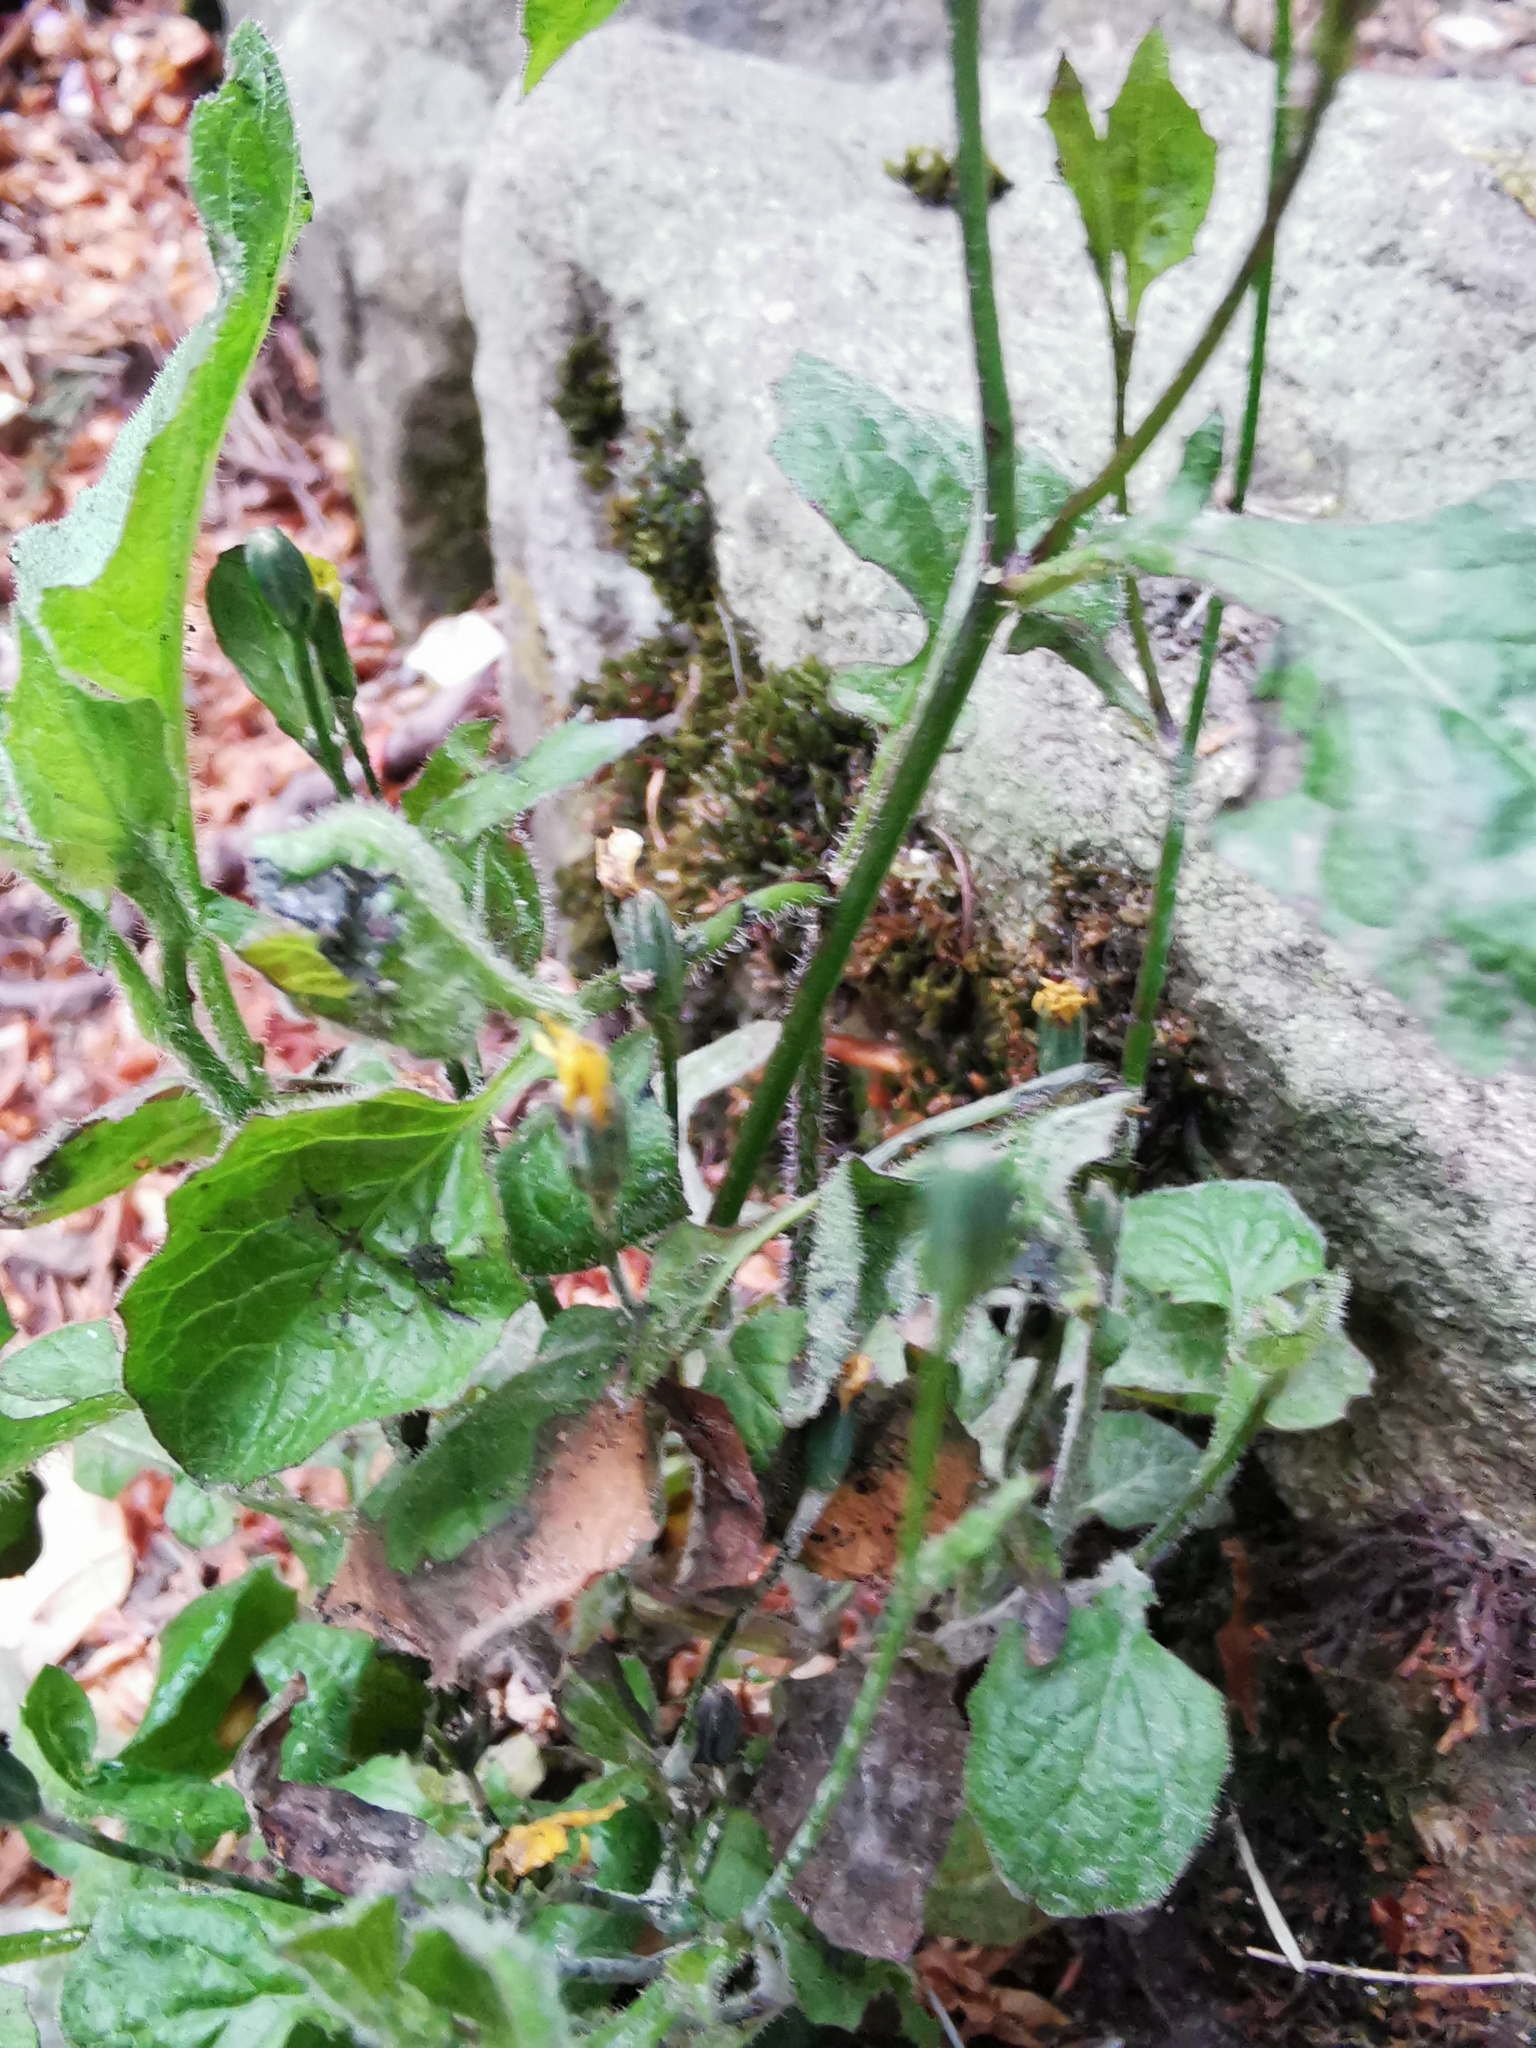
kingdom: Plantae
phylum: Tracheophyta
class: Magnoliopsida
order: Asterales
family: Asteraceae
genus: Lapsana
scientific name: Lapsana communis
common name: Nipplewort
